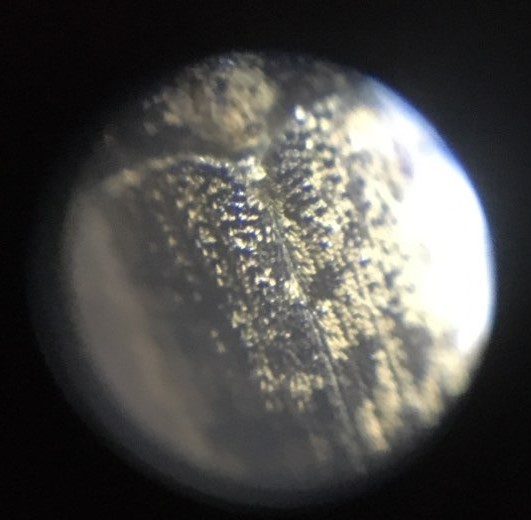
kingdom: Animalia
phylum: Arthropoda
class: Insecta
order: Coleoptera
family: Curculionidae
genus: Hylesinus
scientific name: Hylesinus varius
